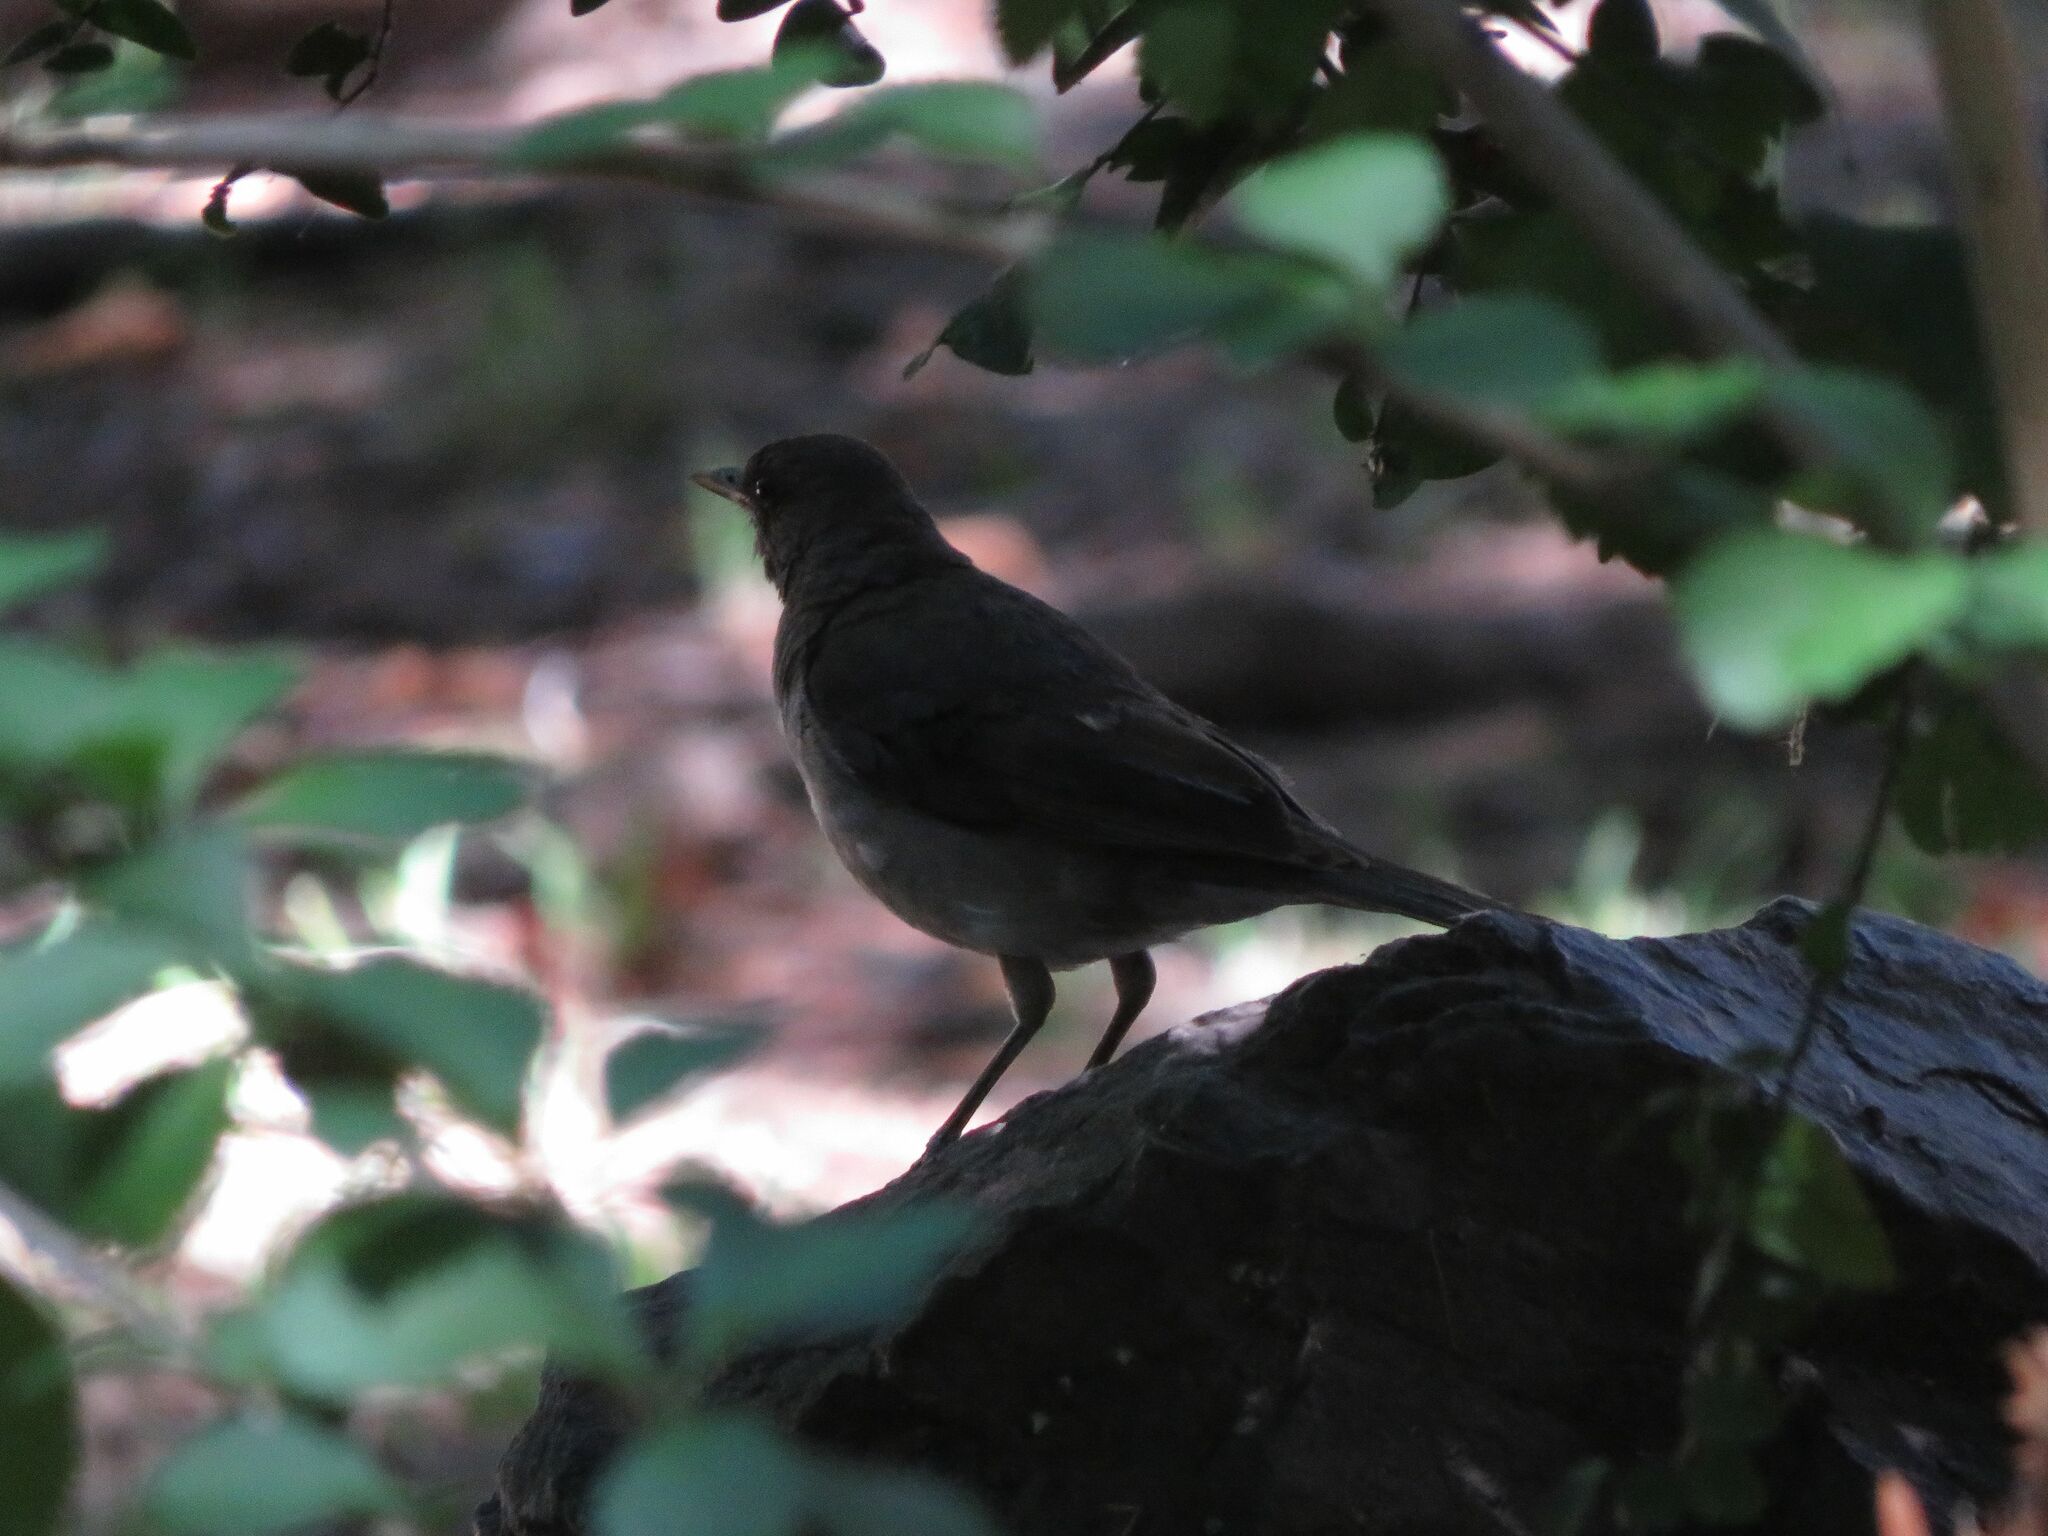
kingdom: Animalia
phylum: Chordata
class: Aves
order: Passeriformes
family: Turdidae
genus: Turdus
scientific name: Turdus amaurochalinus
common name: Creamy-bellied thrush
